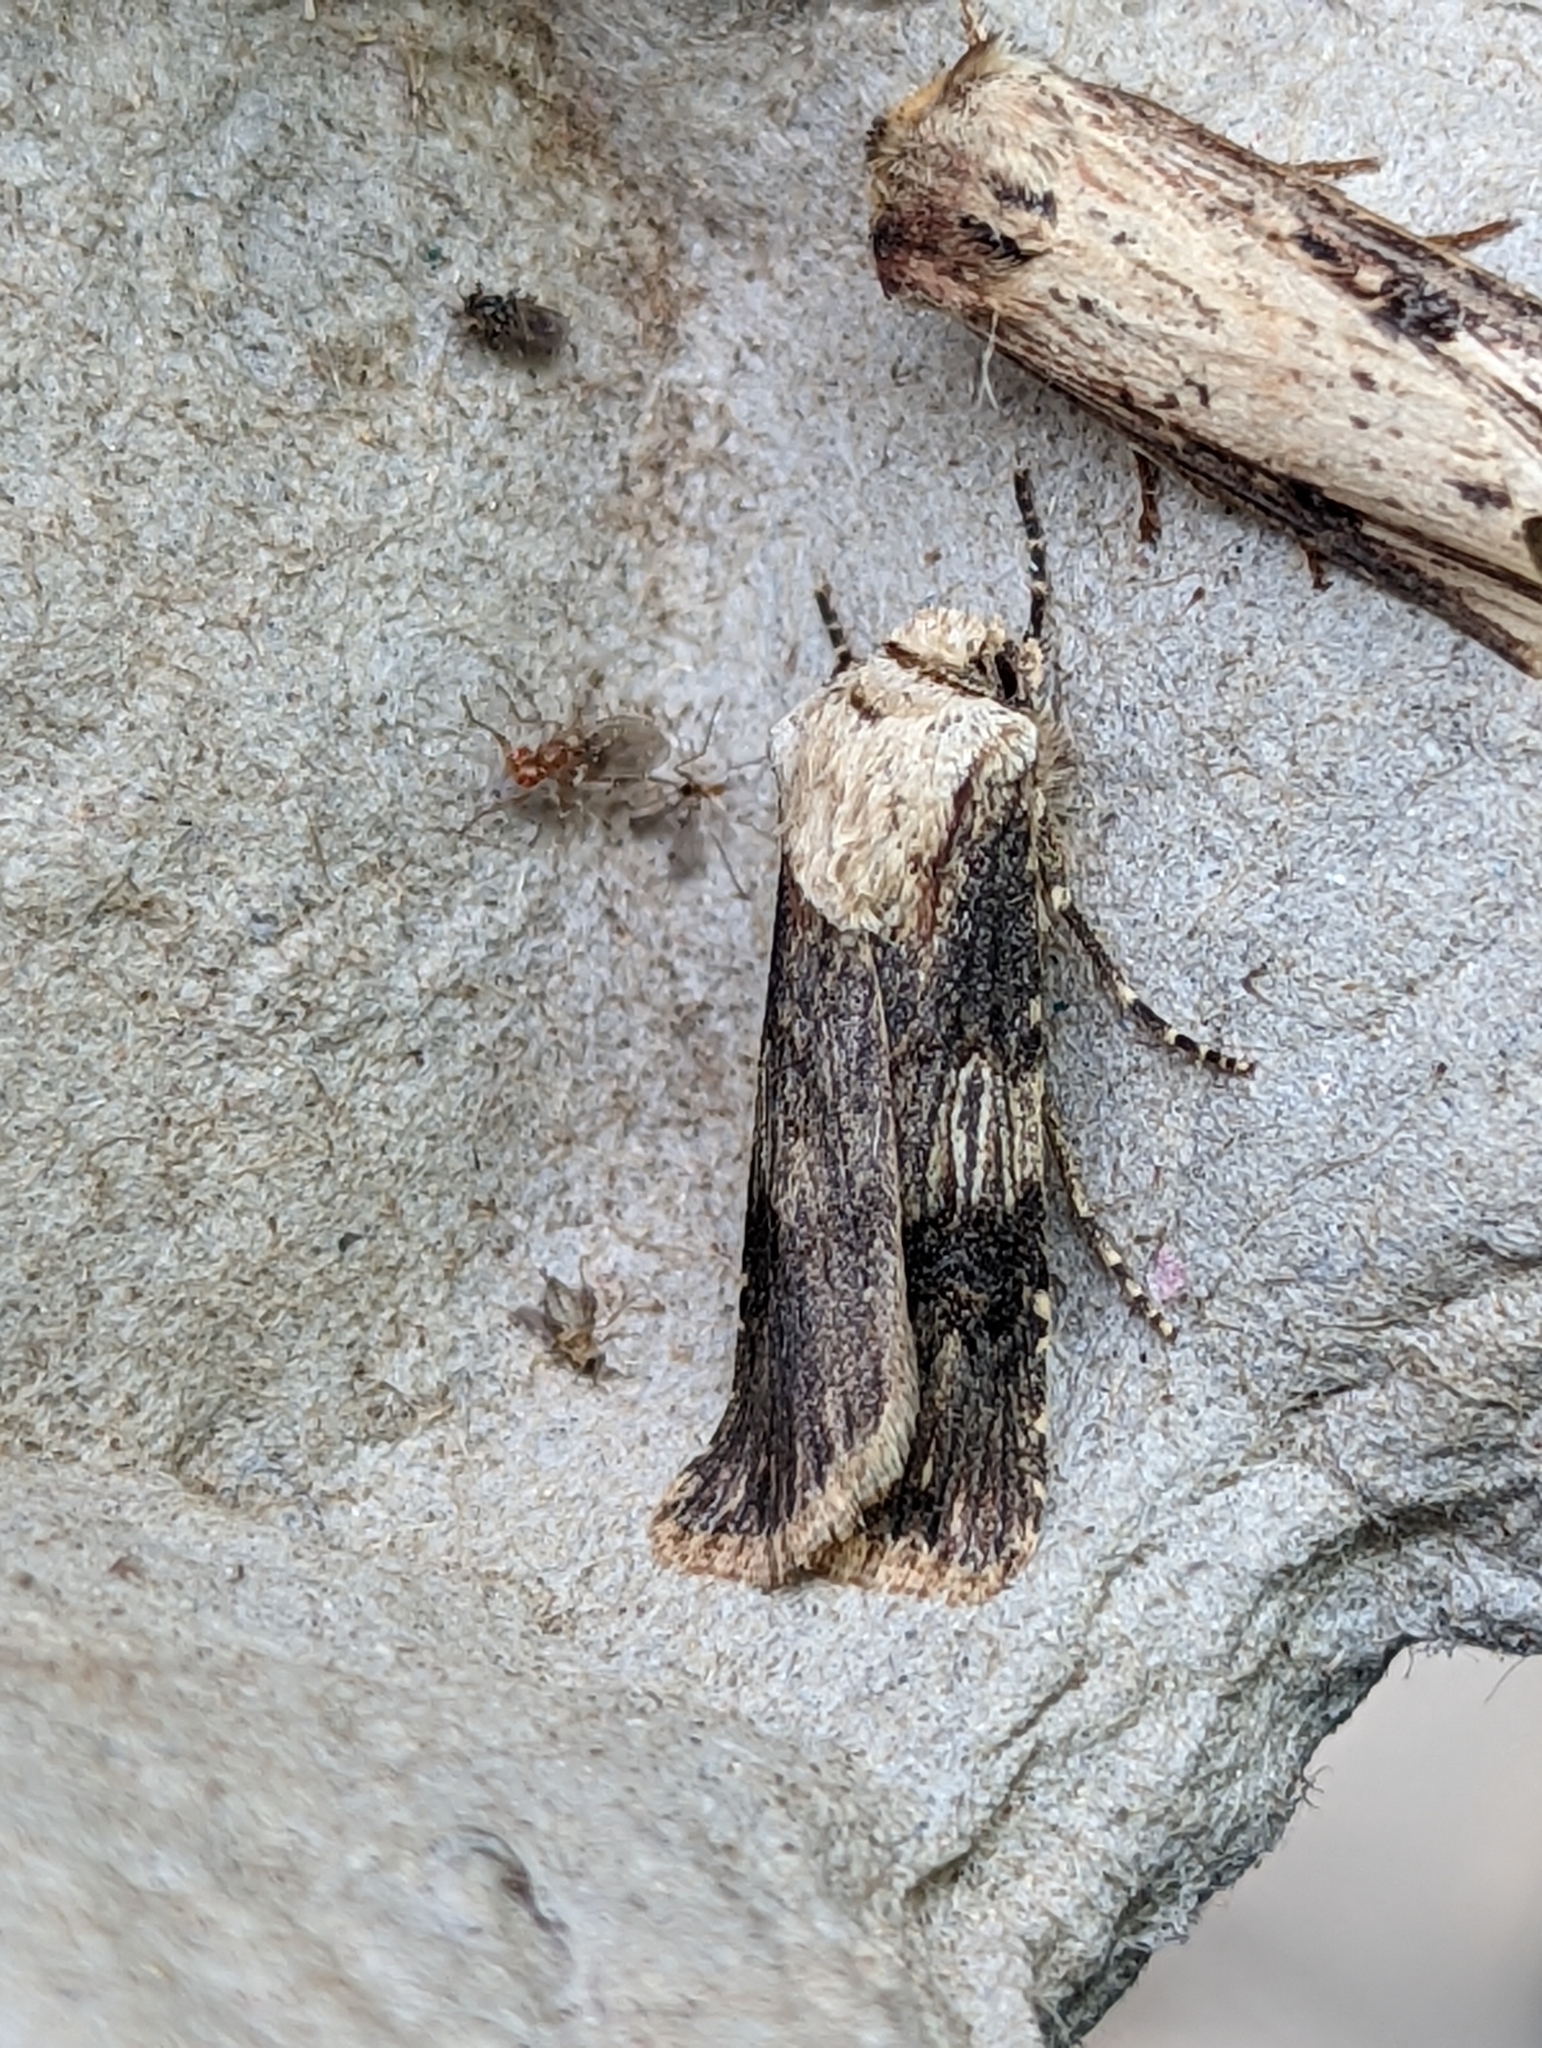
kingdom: Animalia
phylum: Arthropoda
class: Insecta
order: Lepidoptera
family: Noctuidae
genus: Agrotis
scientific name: Agrotis puta
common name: Shuttle-shaped dart
